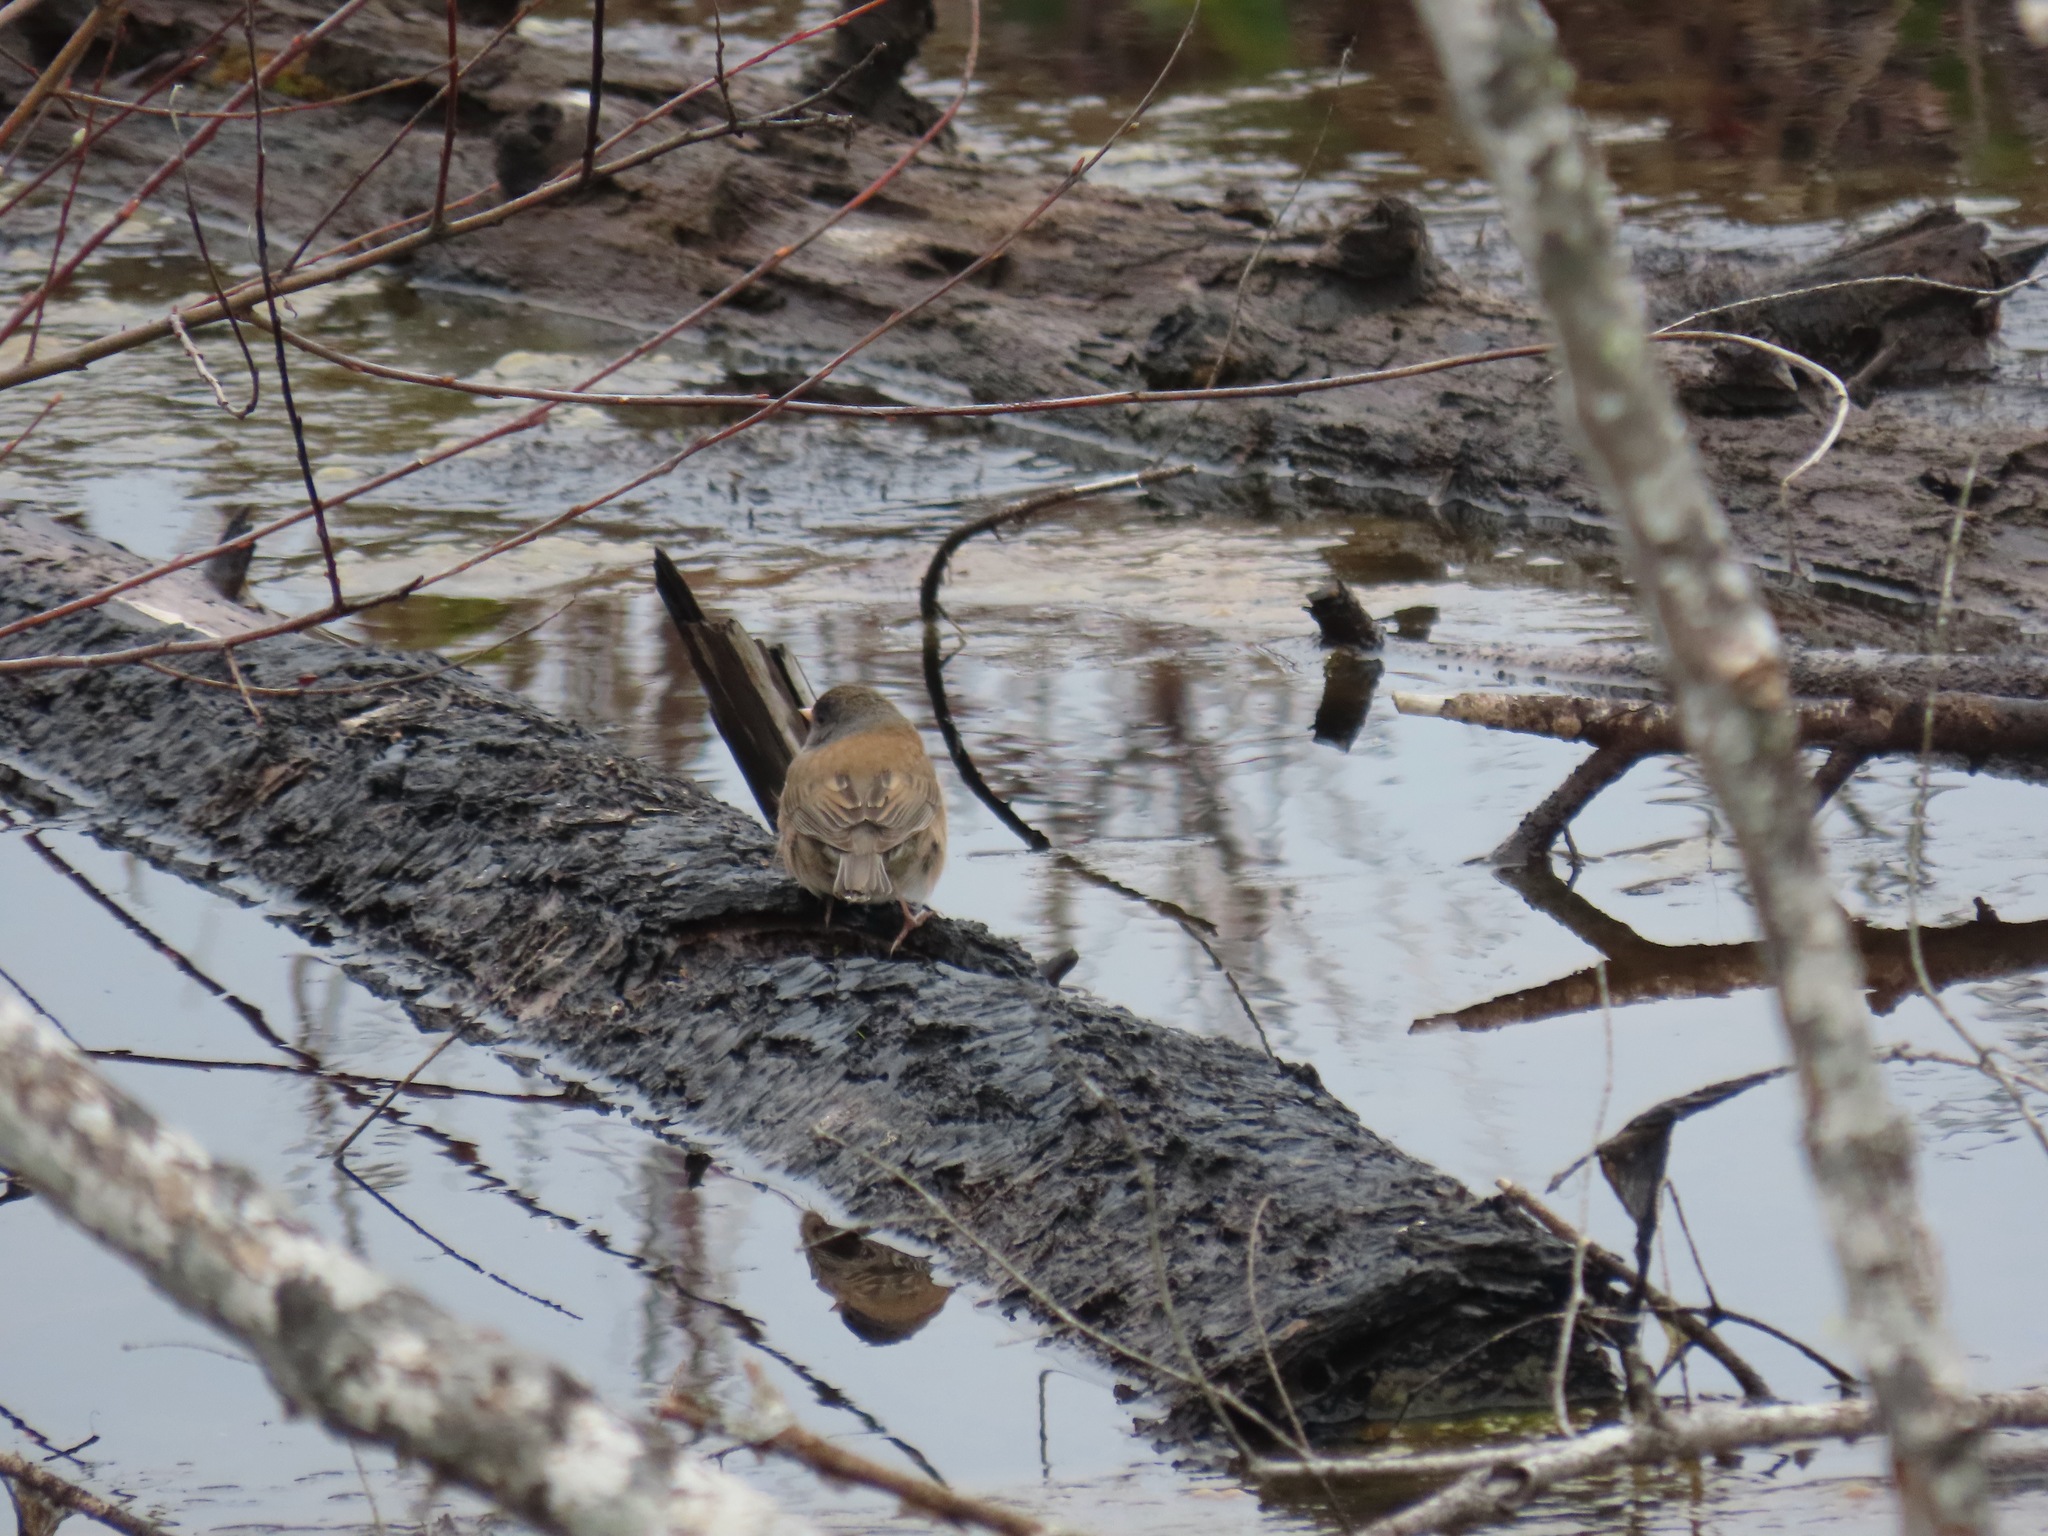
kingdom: Animalia
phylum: Chordata
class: Aves
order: Passeriformes
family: Passerellidae
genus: Junco
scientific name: Junco hyemalis
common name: Dark-eyed junco
